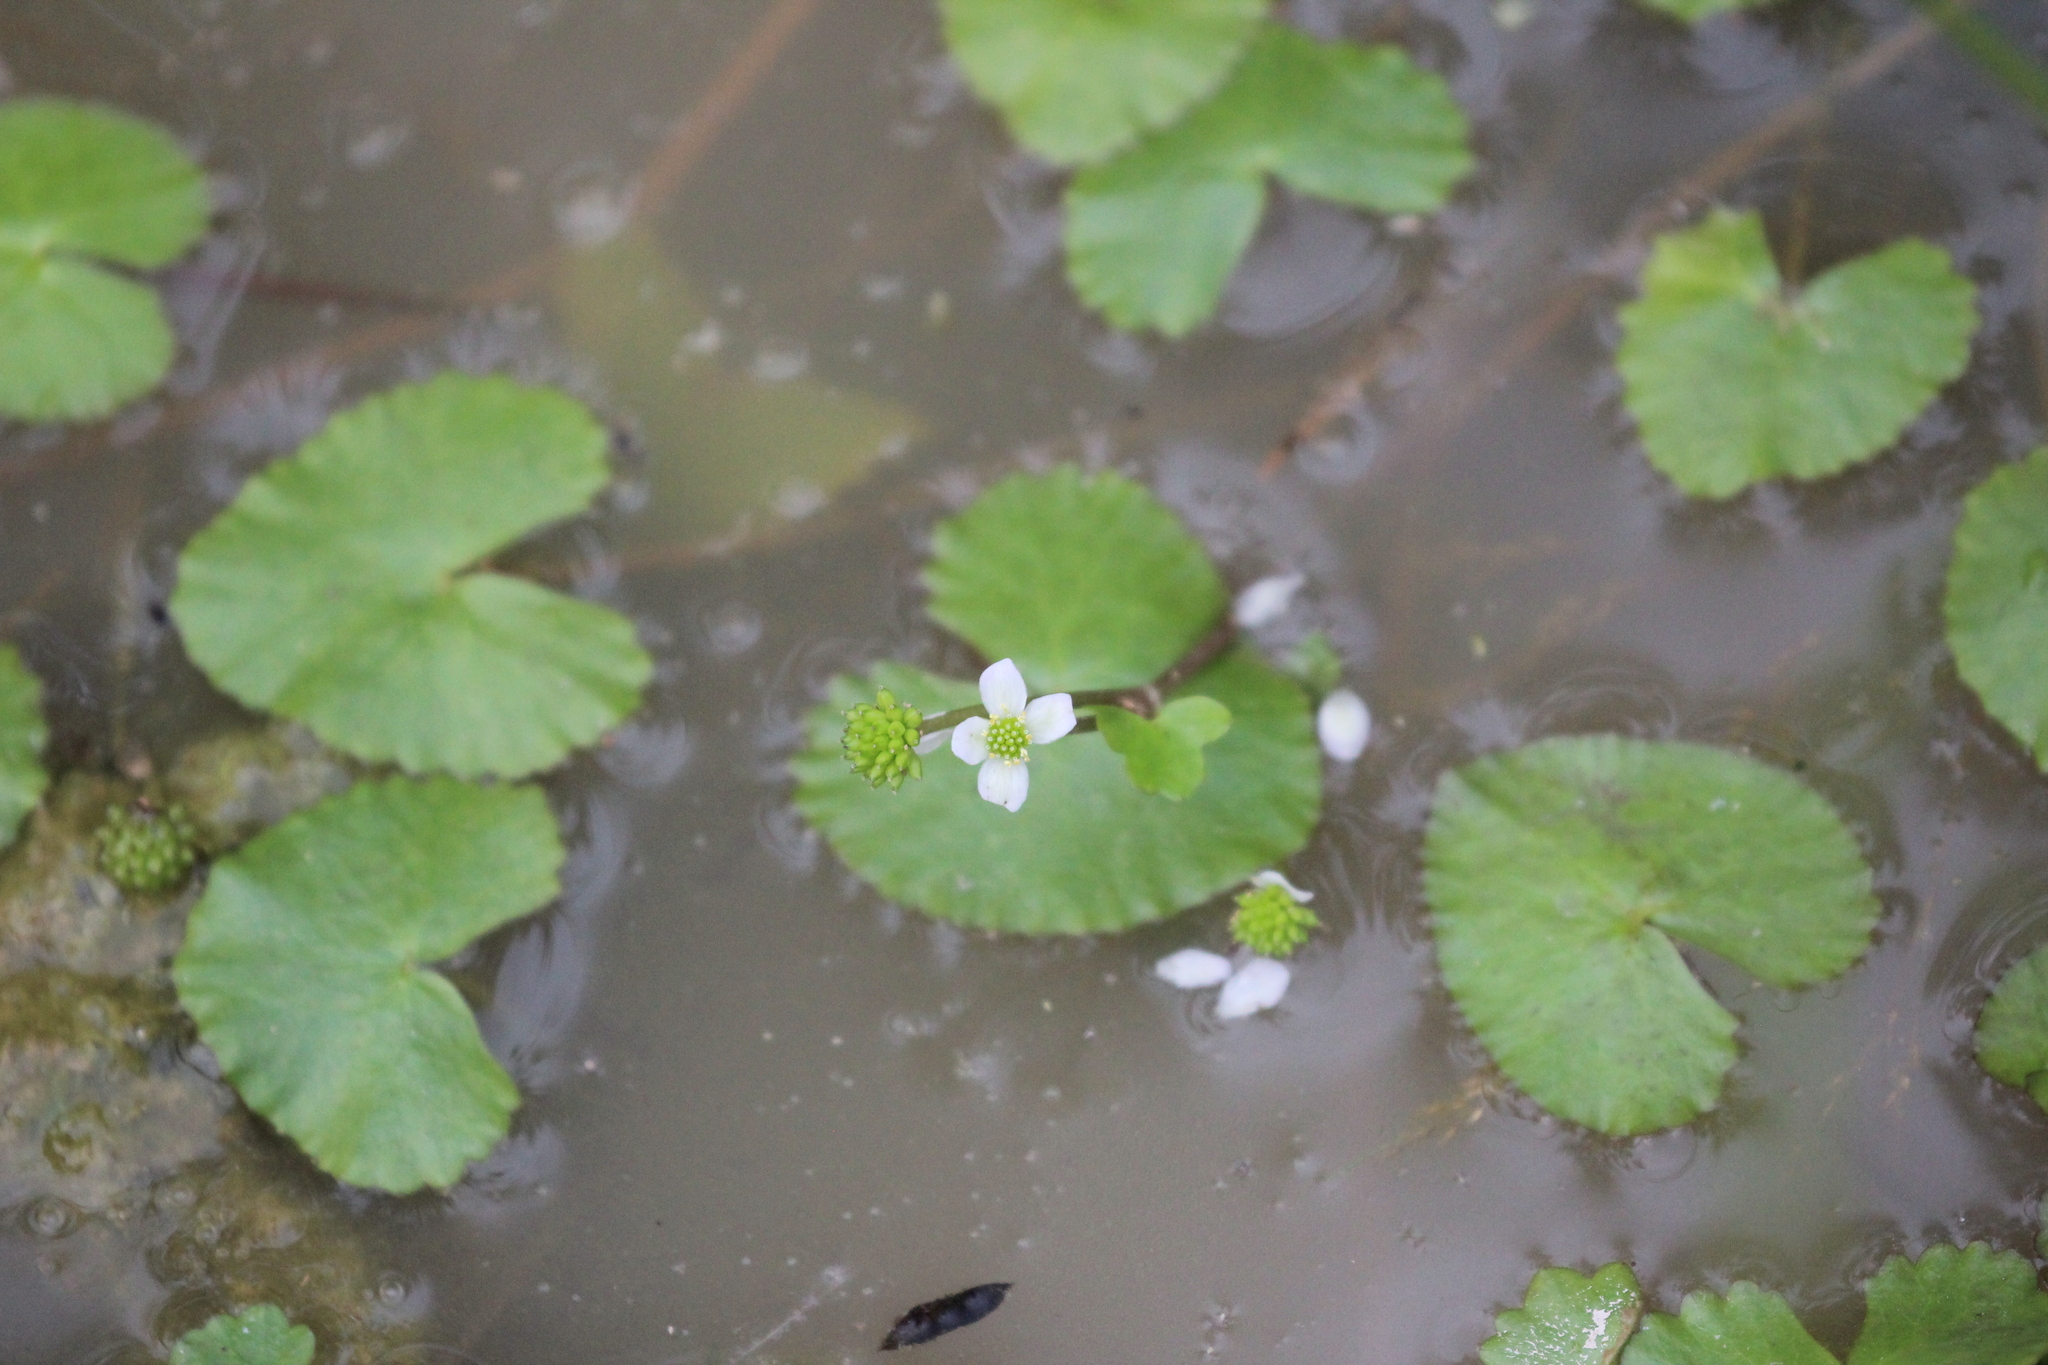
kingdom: Plantae
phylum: Tracheophyta
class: Magnoliopsida
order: Ranunculales
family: Ranunculaceae
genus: Caltha
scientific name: Caltha natans
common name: Floating marsh marigold
